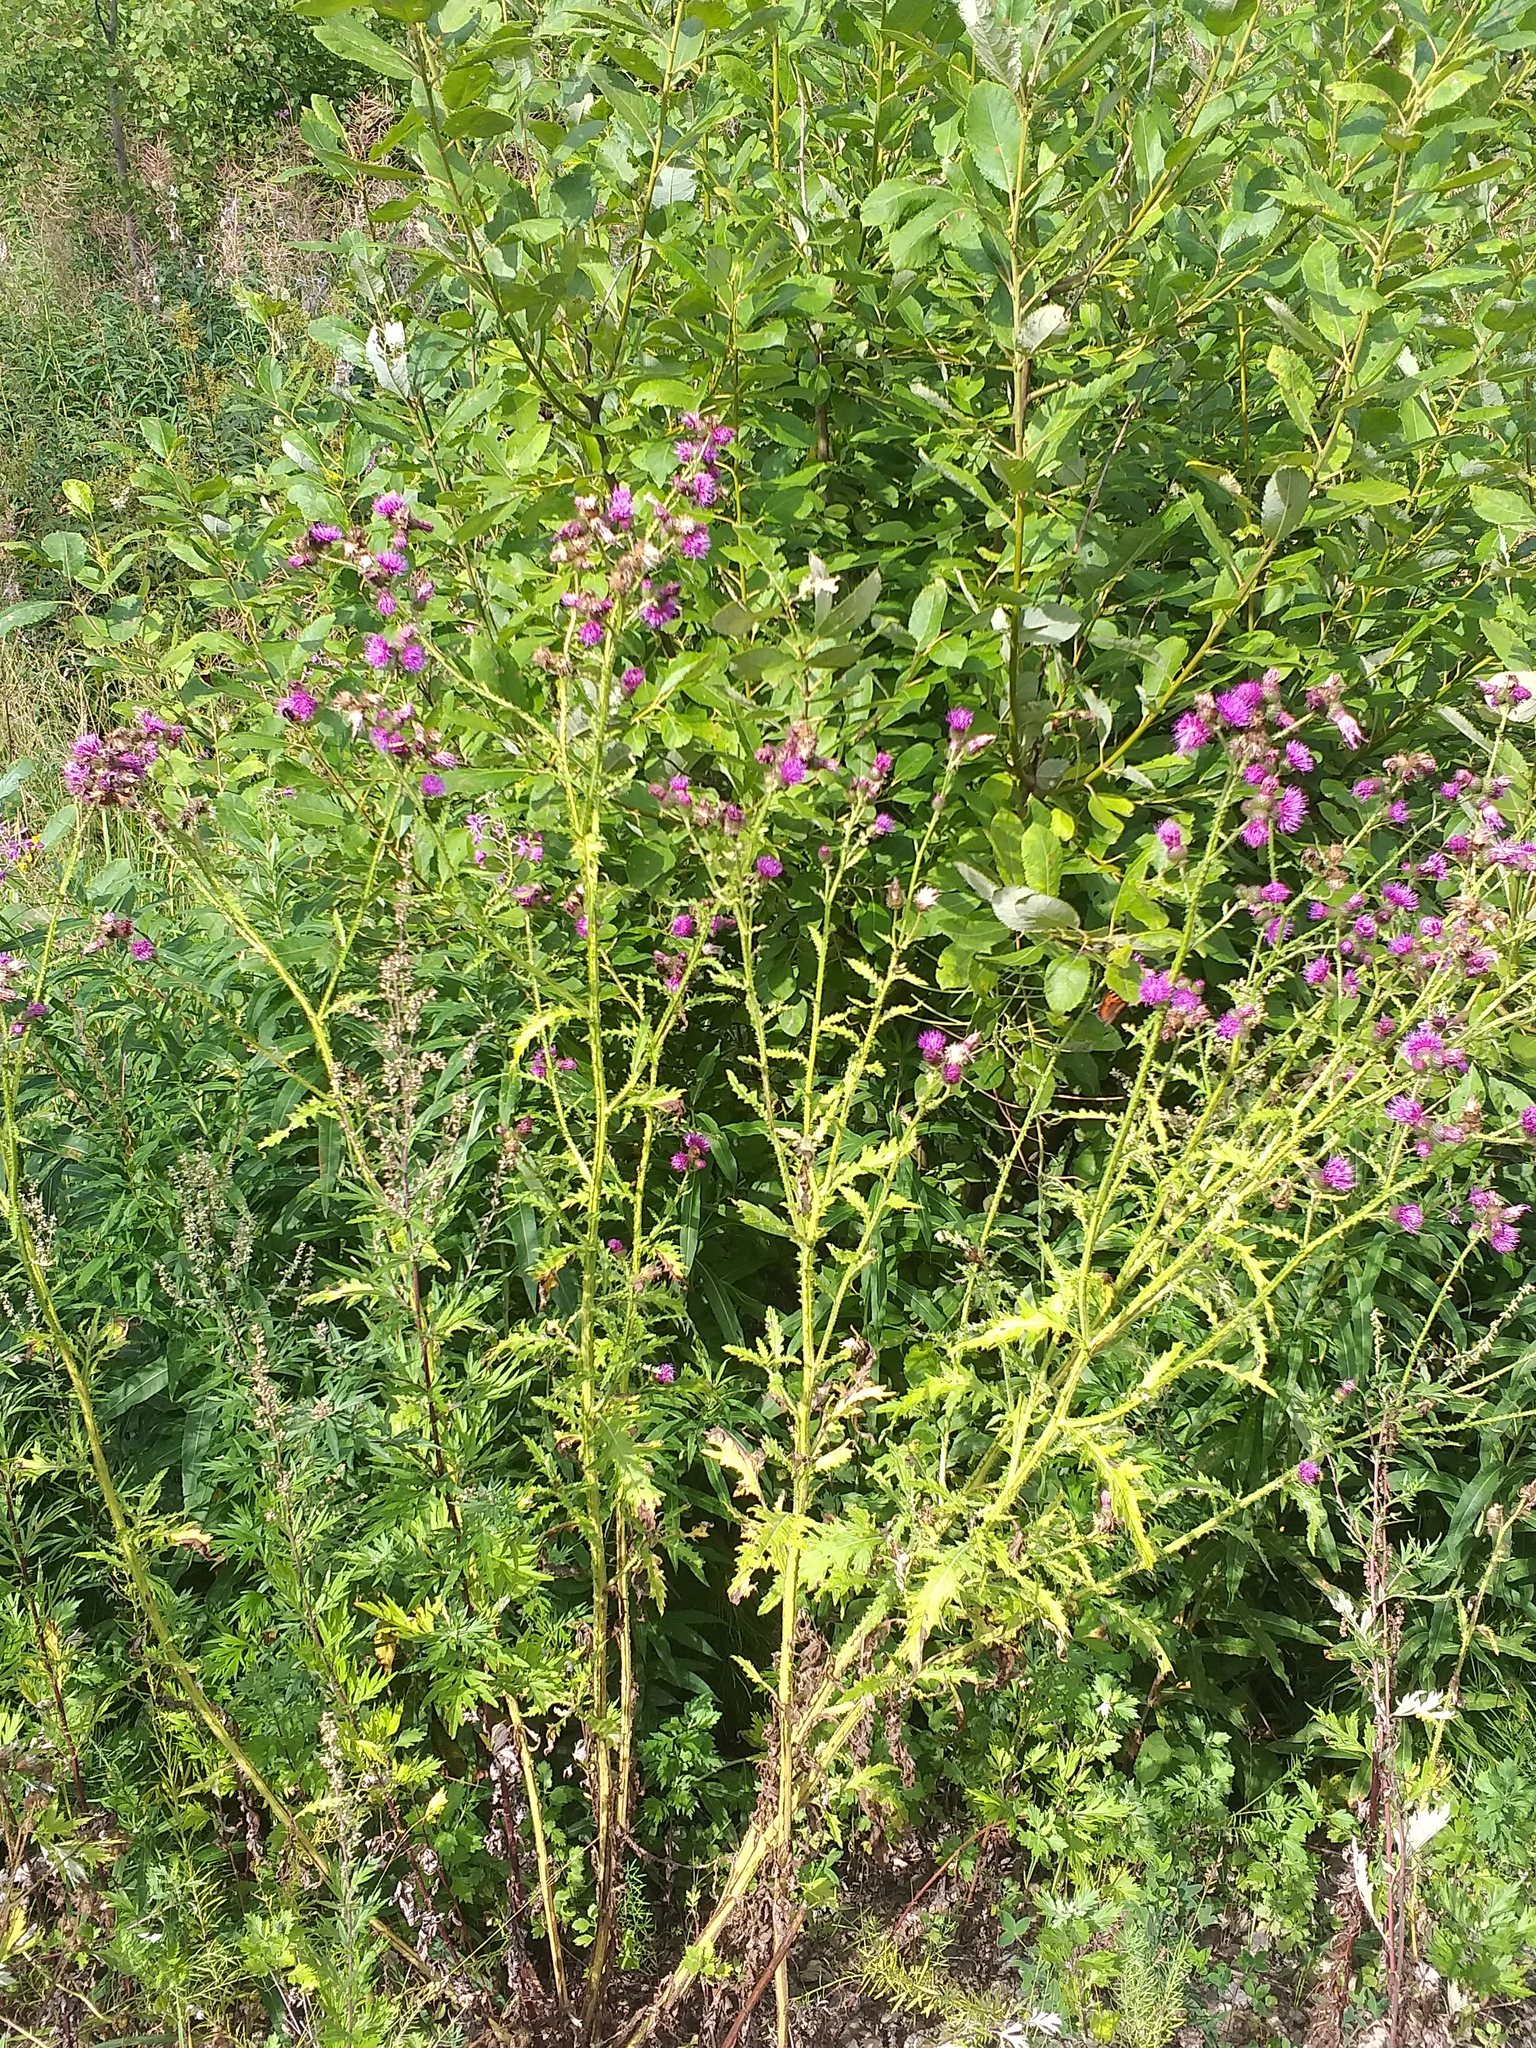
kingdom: Plantae
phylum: Tracheophyta
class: Magnoliopsida
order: Asterales
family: Asteraceae
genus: Carduus
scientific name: Carduus crispus
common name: Welted thistle
